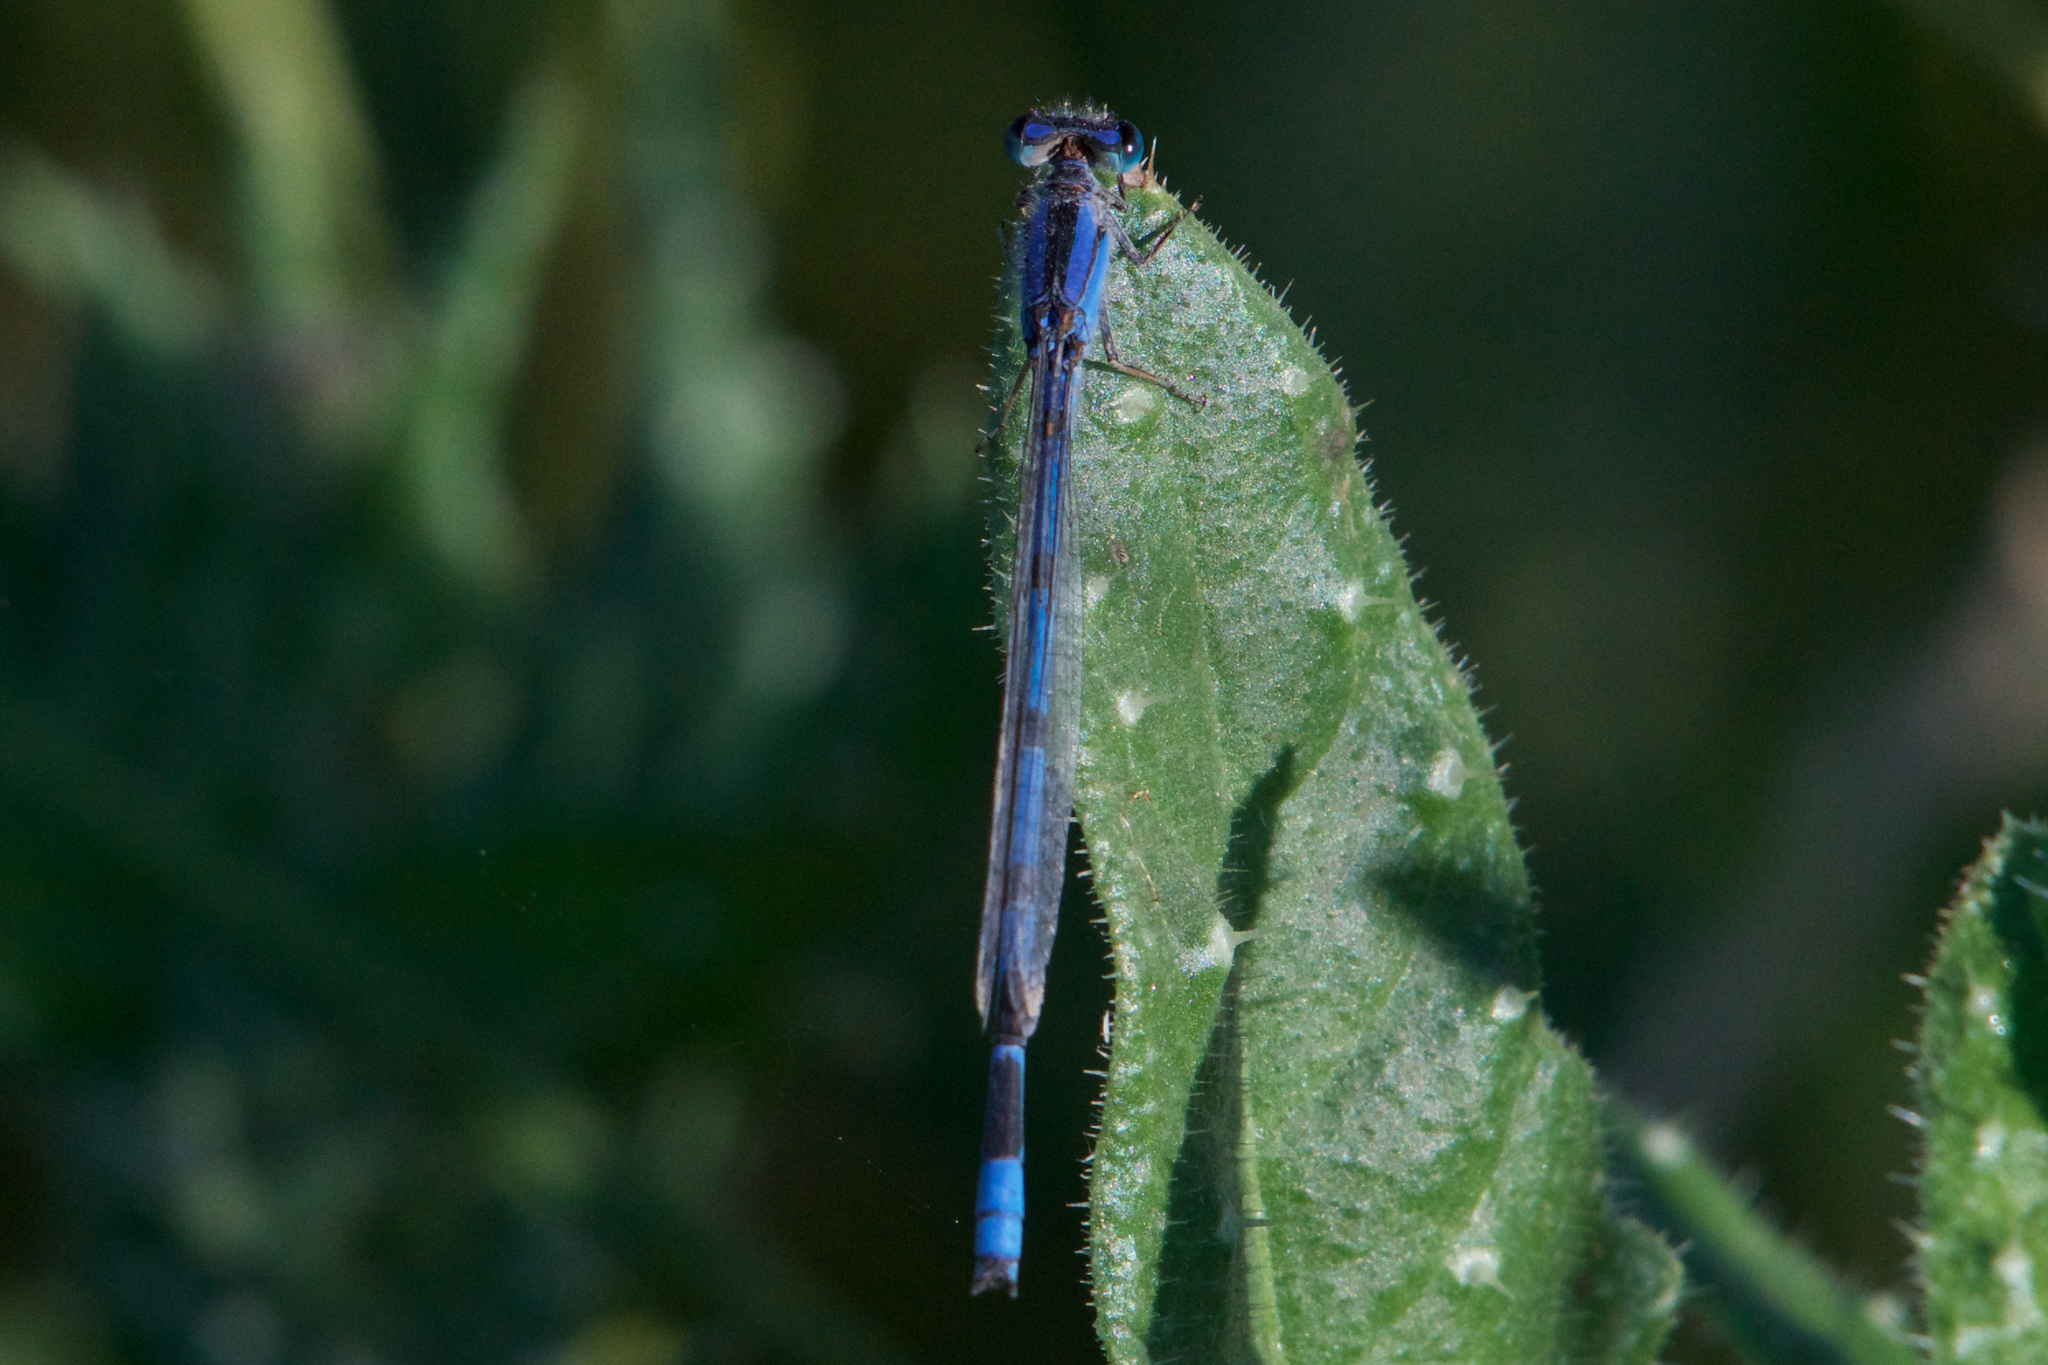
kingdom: Animalia
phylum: Arthropoda
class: Insecta
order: Odonata
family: Coenagrionidae
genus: Enallagma
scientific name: Enallagma civile
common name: Damselfly
